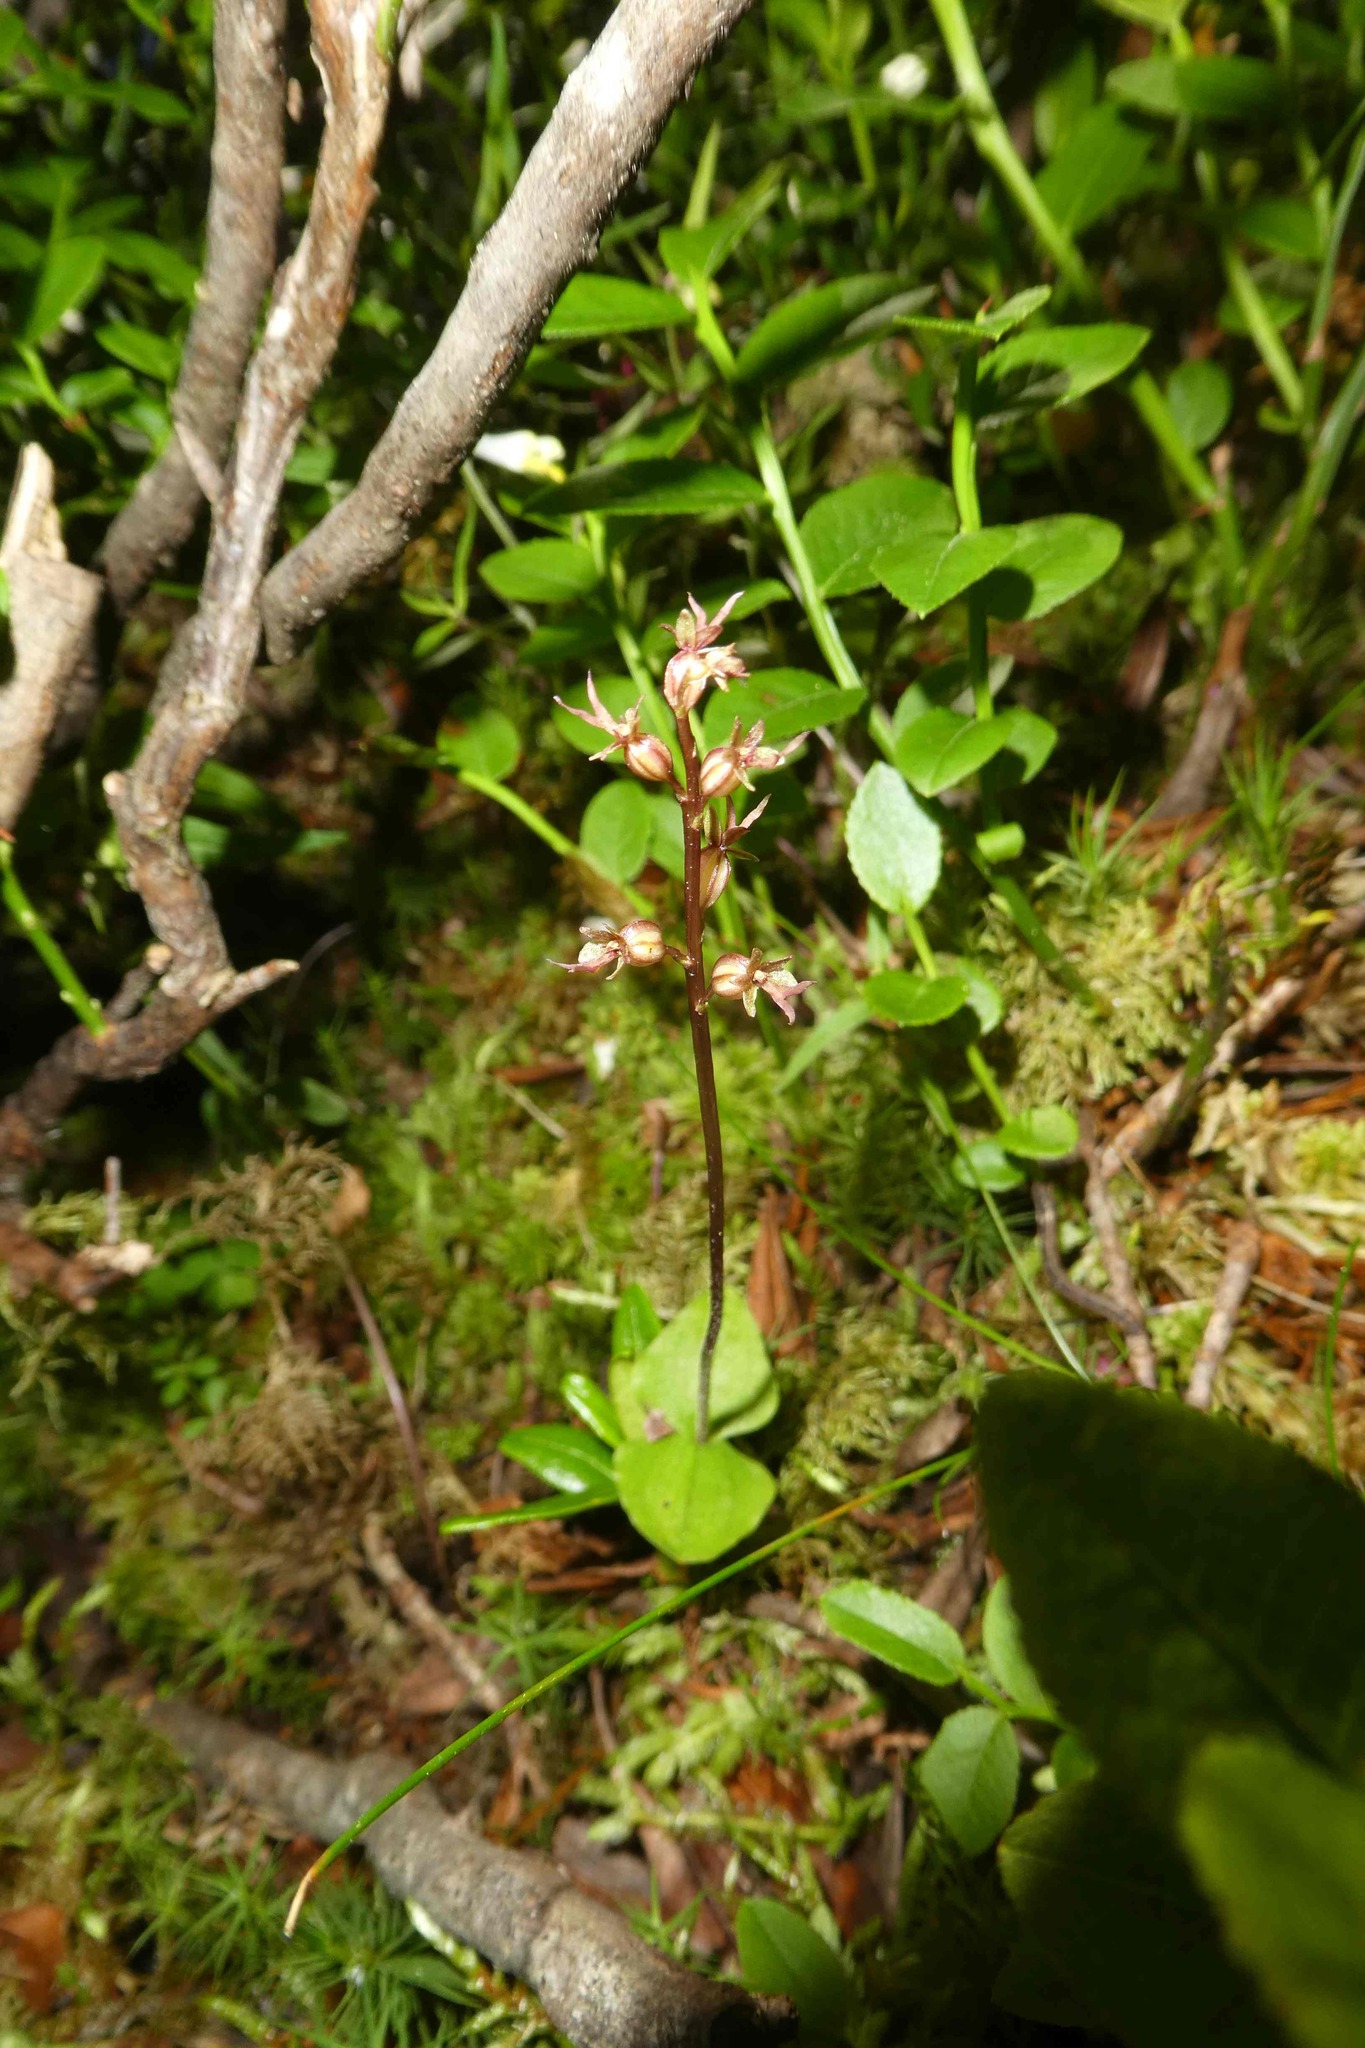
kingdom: Plantae
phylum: Tracheophyta
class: Liliopsida
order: Asparagales
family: Orchidaceae
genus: Neottia
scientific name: Neottia cordata
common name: Lesser twayblade
